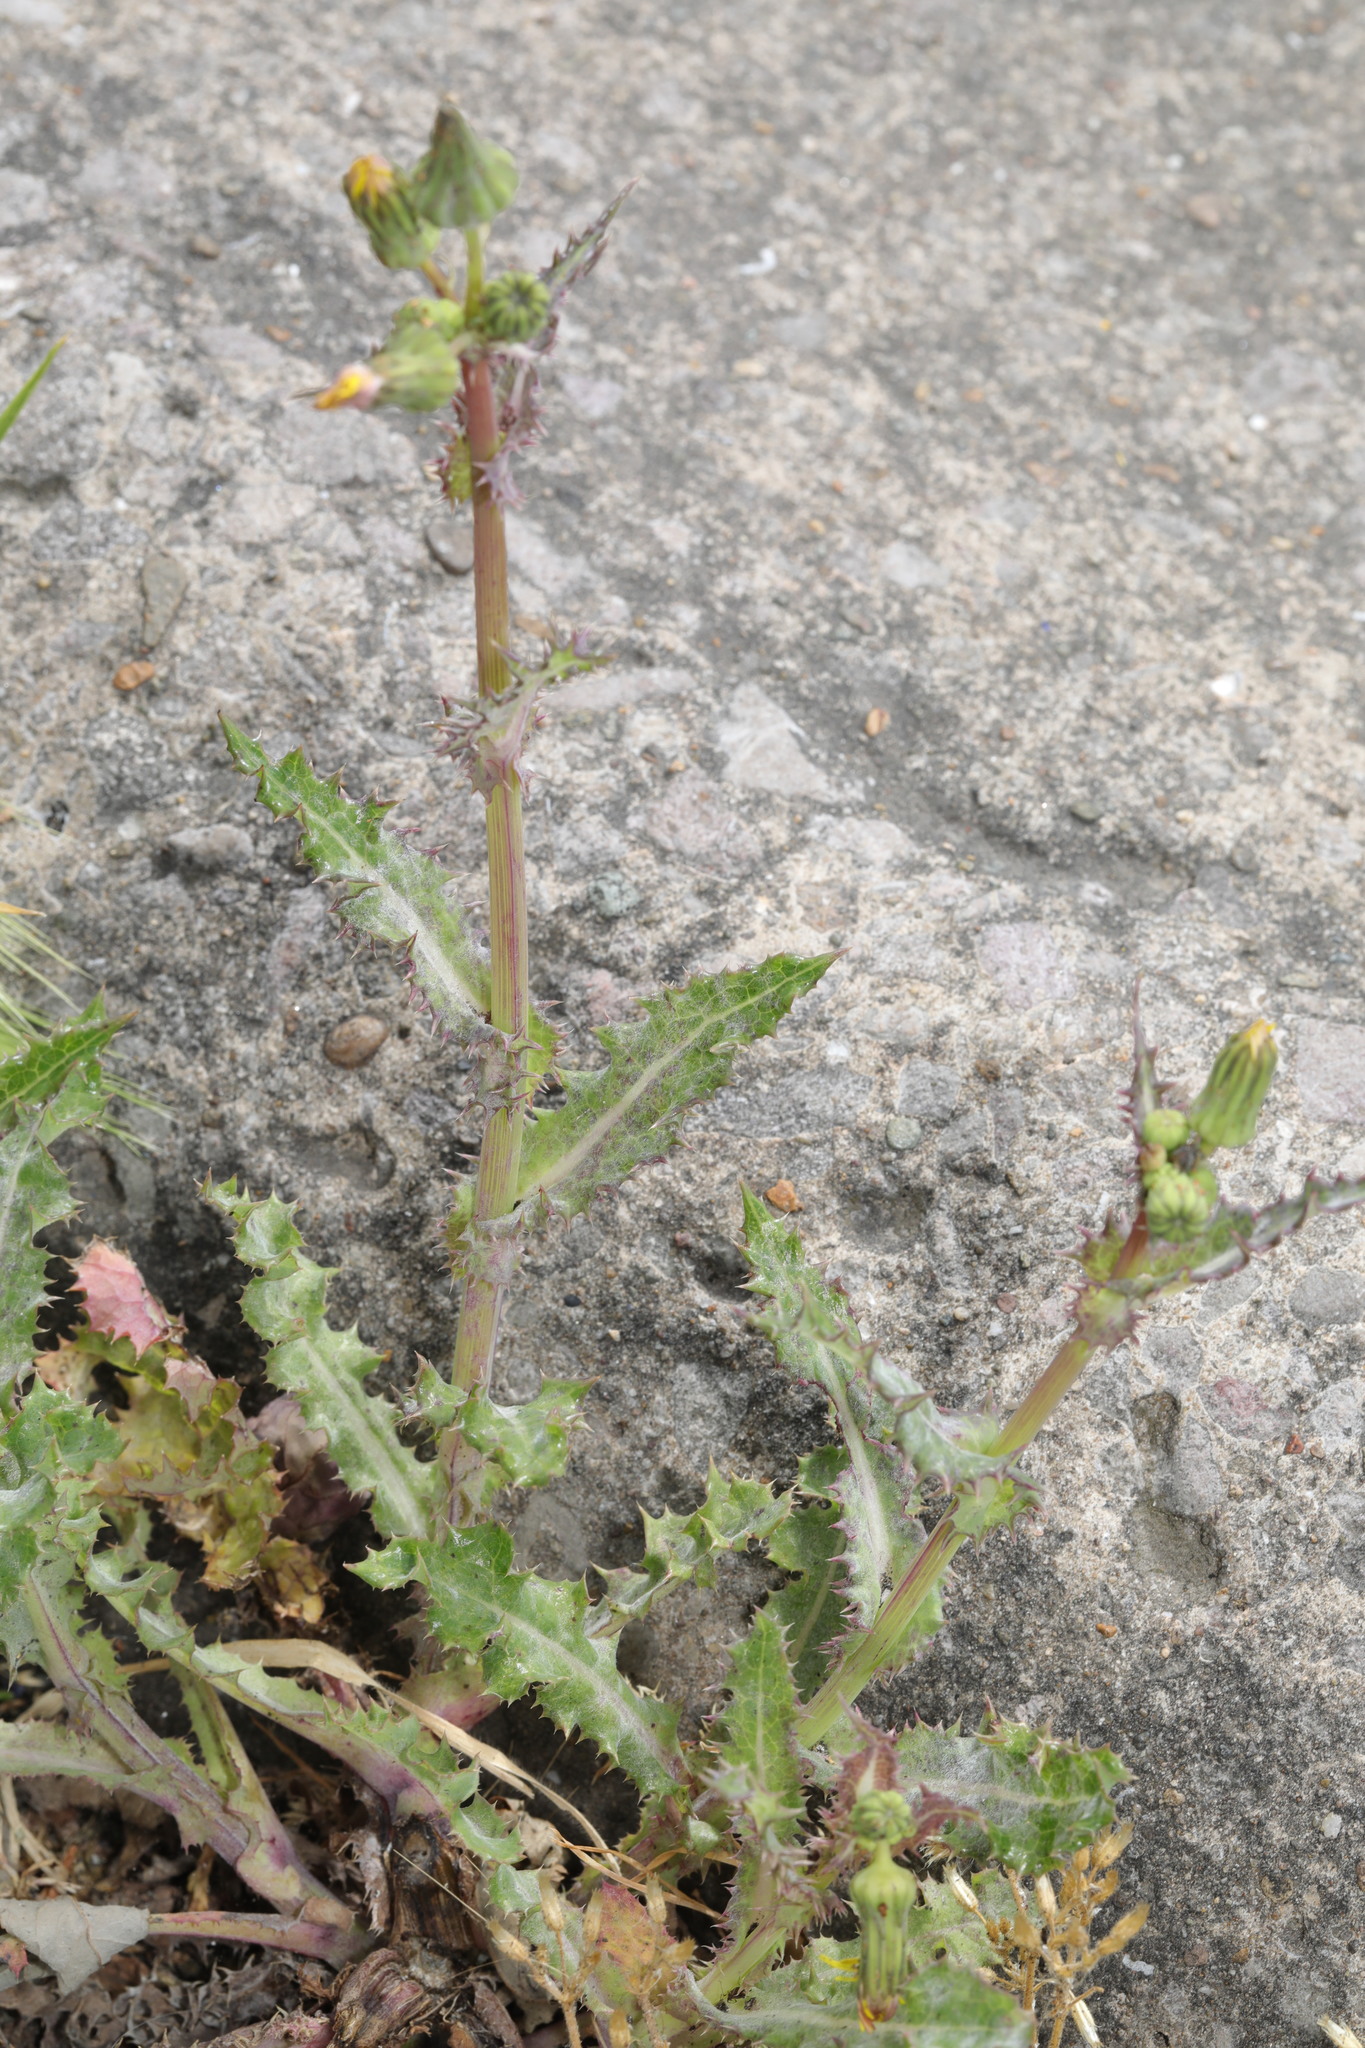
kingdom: Plantae
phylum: Tracheophyta
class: Magnoliopsida
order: Asterales
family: Asteraceae
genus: Sonchus
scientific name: Sonchus asper
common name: Prickly sow-thistle
